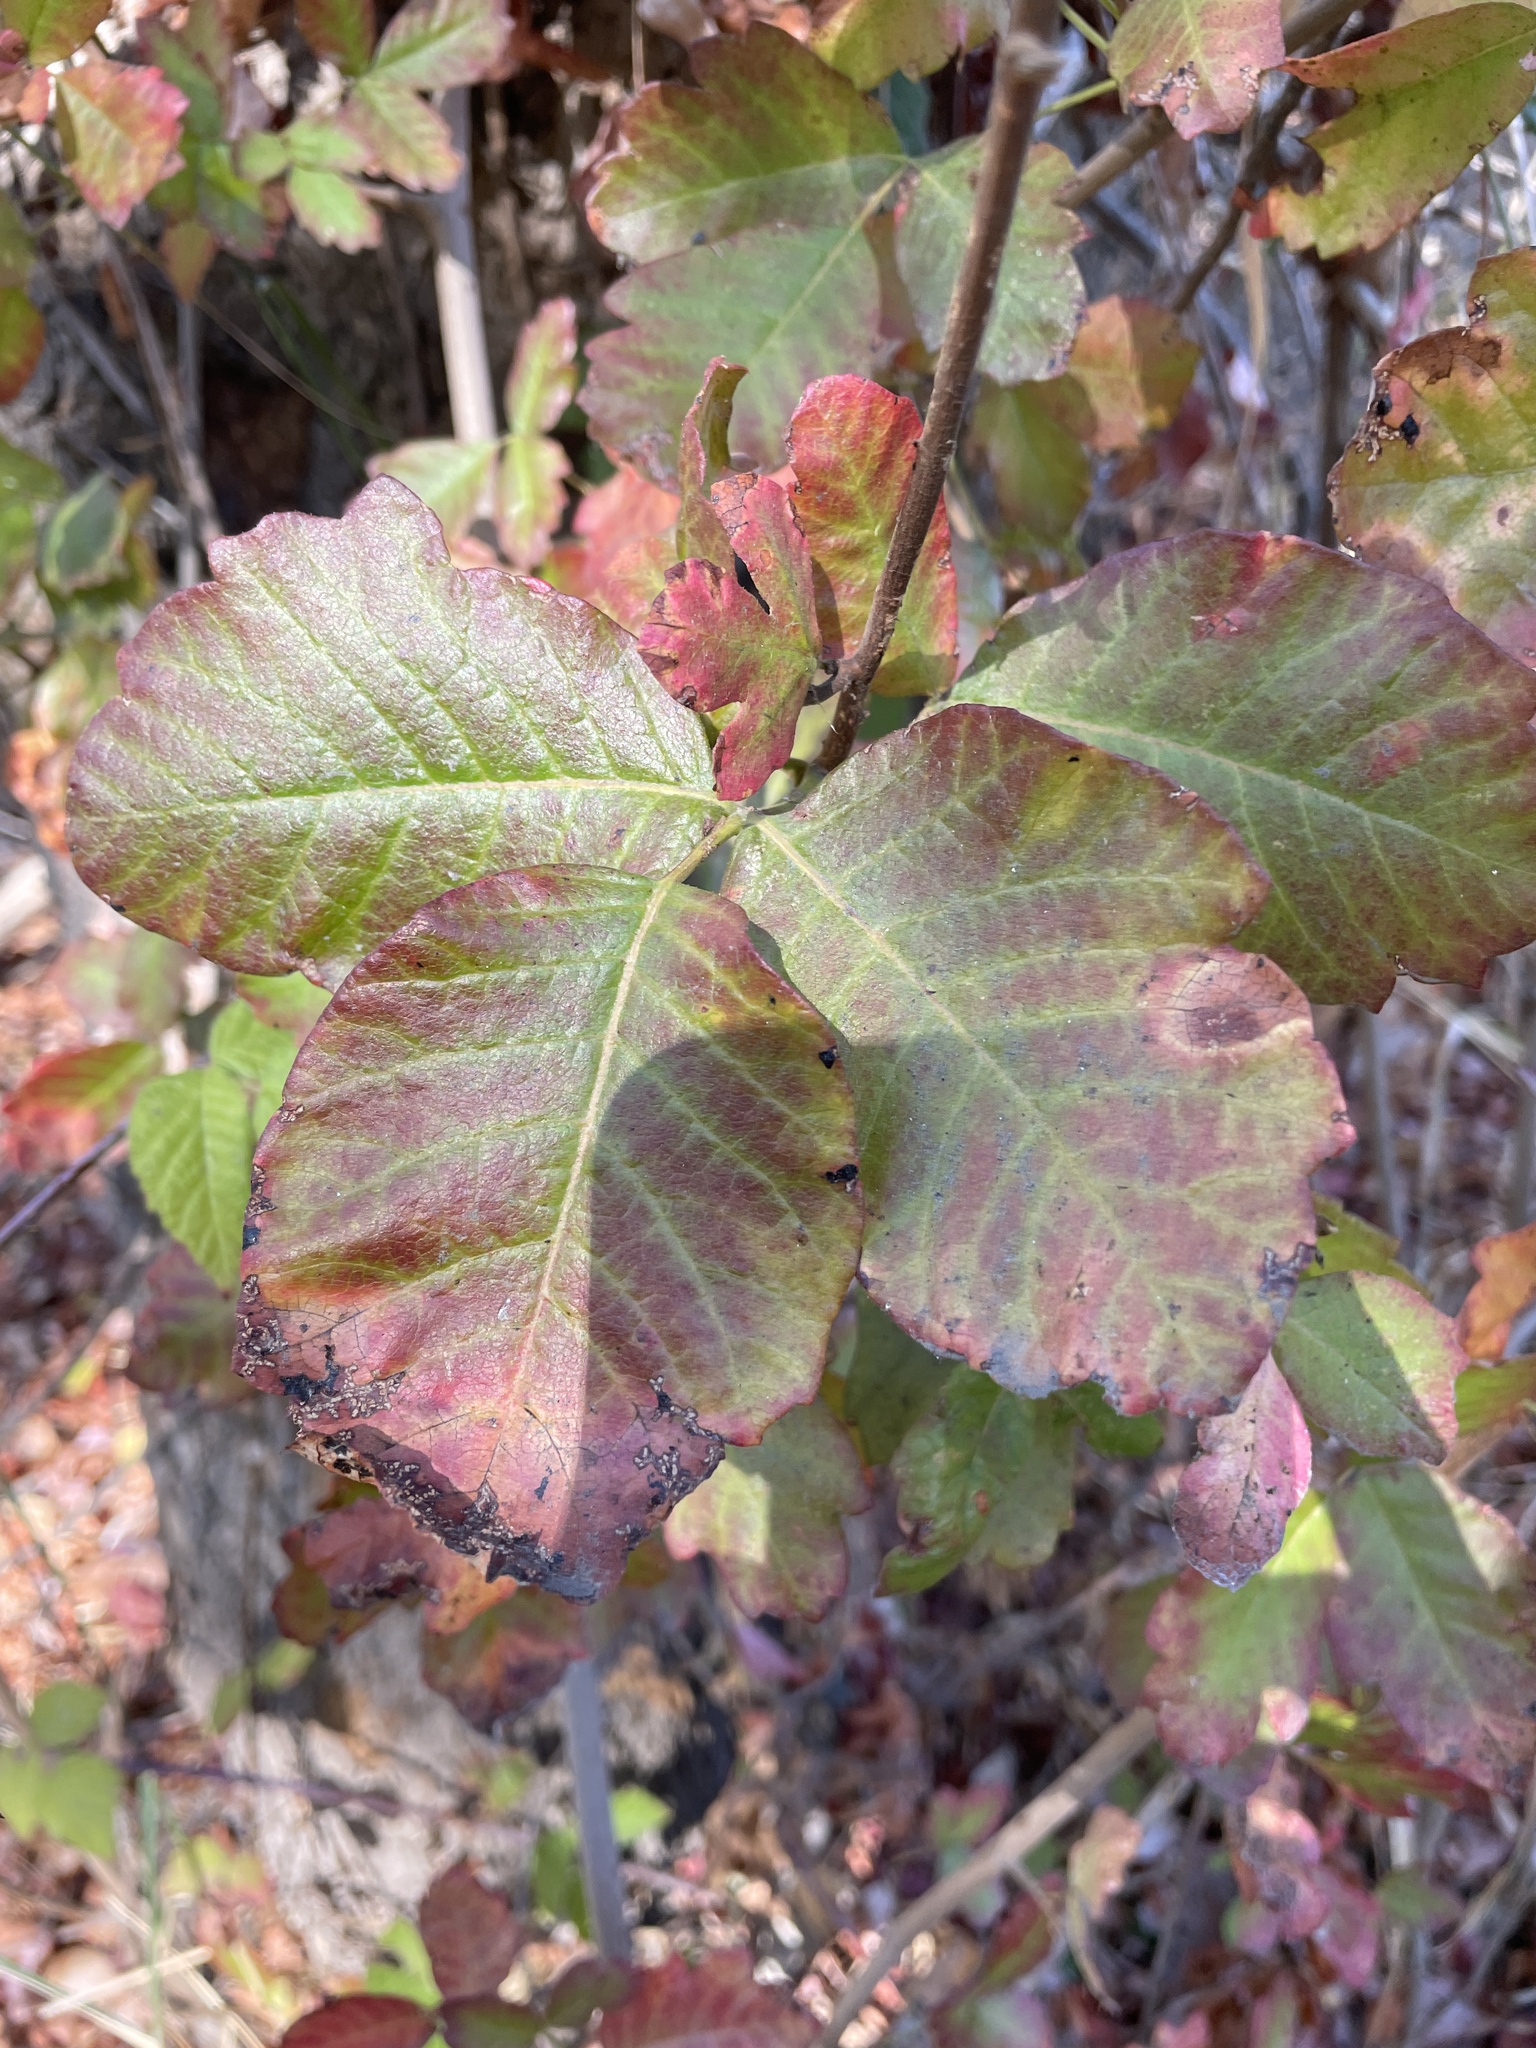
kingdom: Plantae
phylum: Tracheophyta
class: Magnoliopsida
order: Sapindales
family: Anacardiaceae
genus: Toxicodendron
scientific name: Toxicodendron diversilobum
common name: Pacific poison-oak
